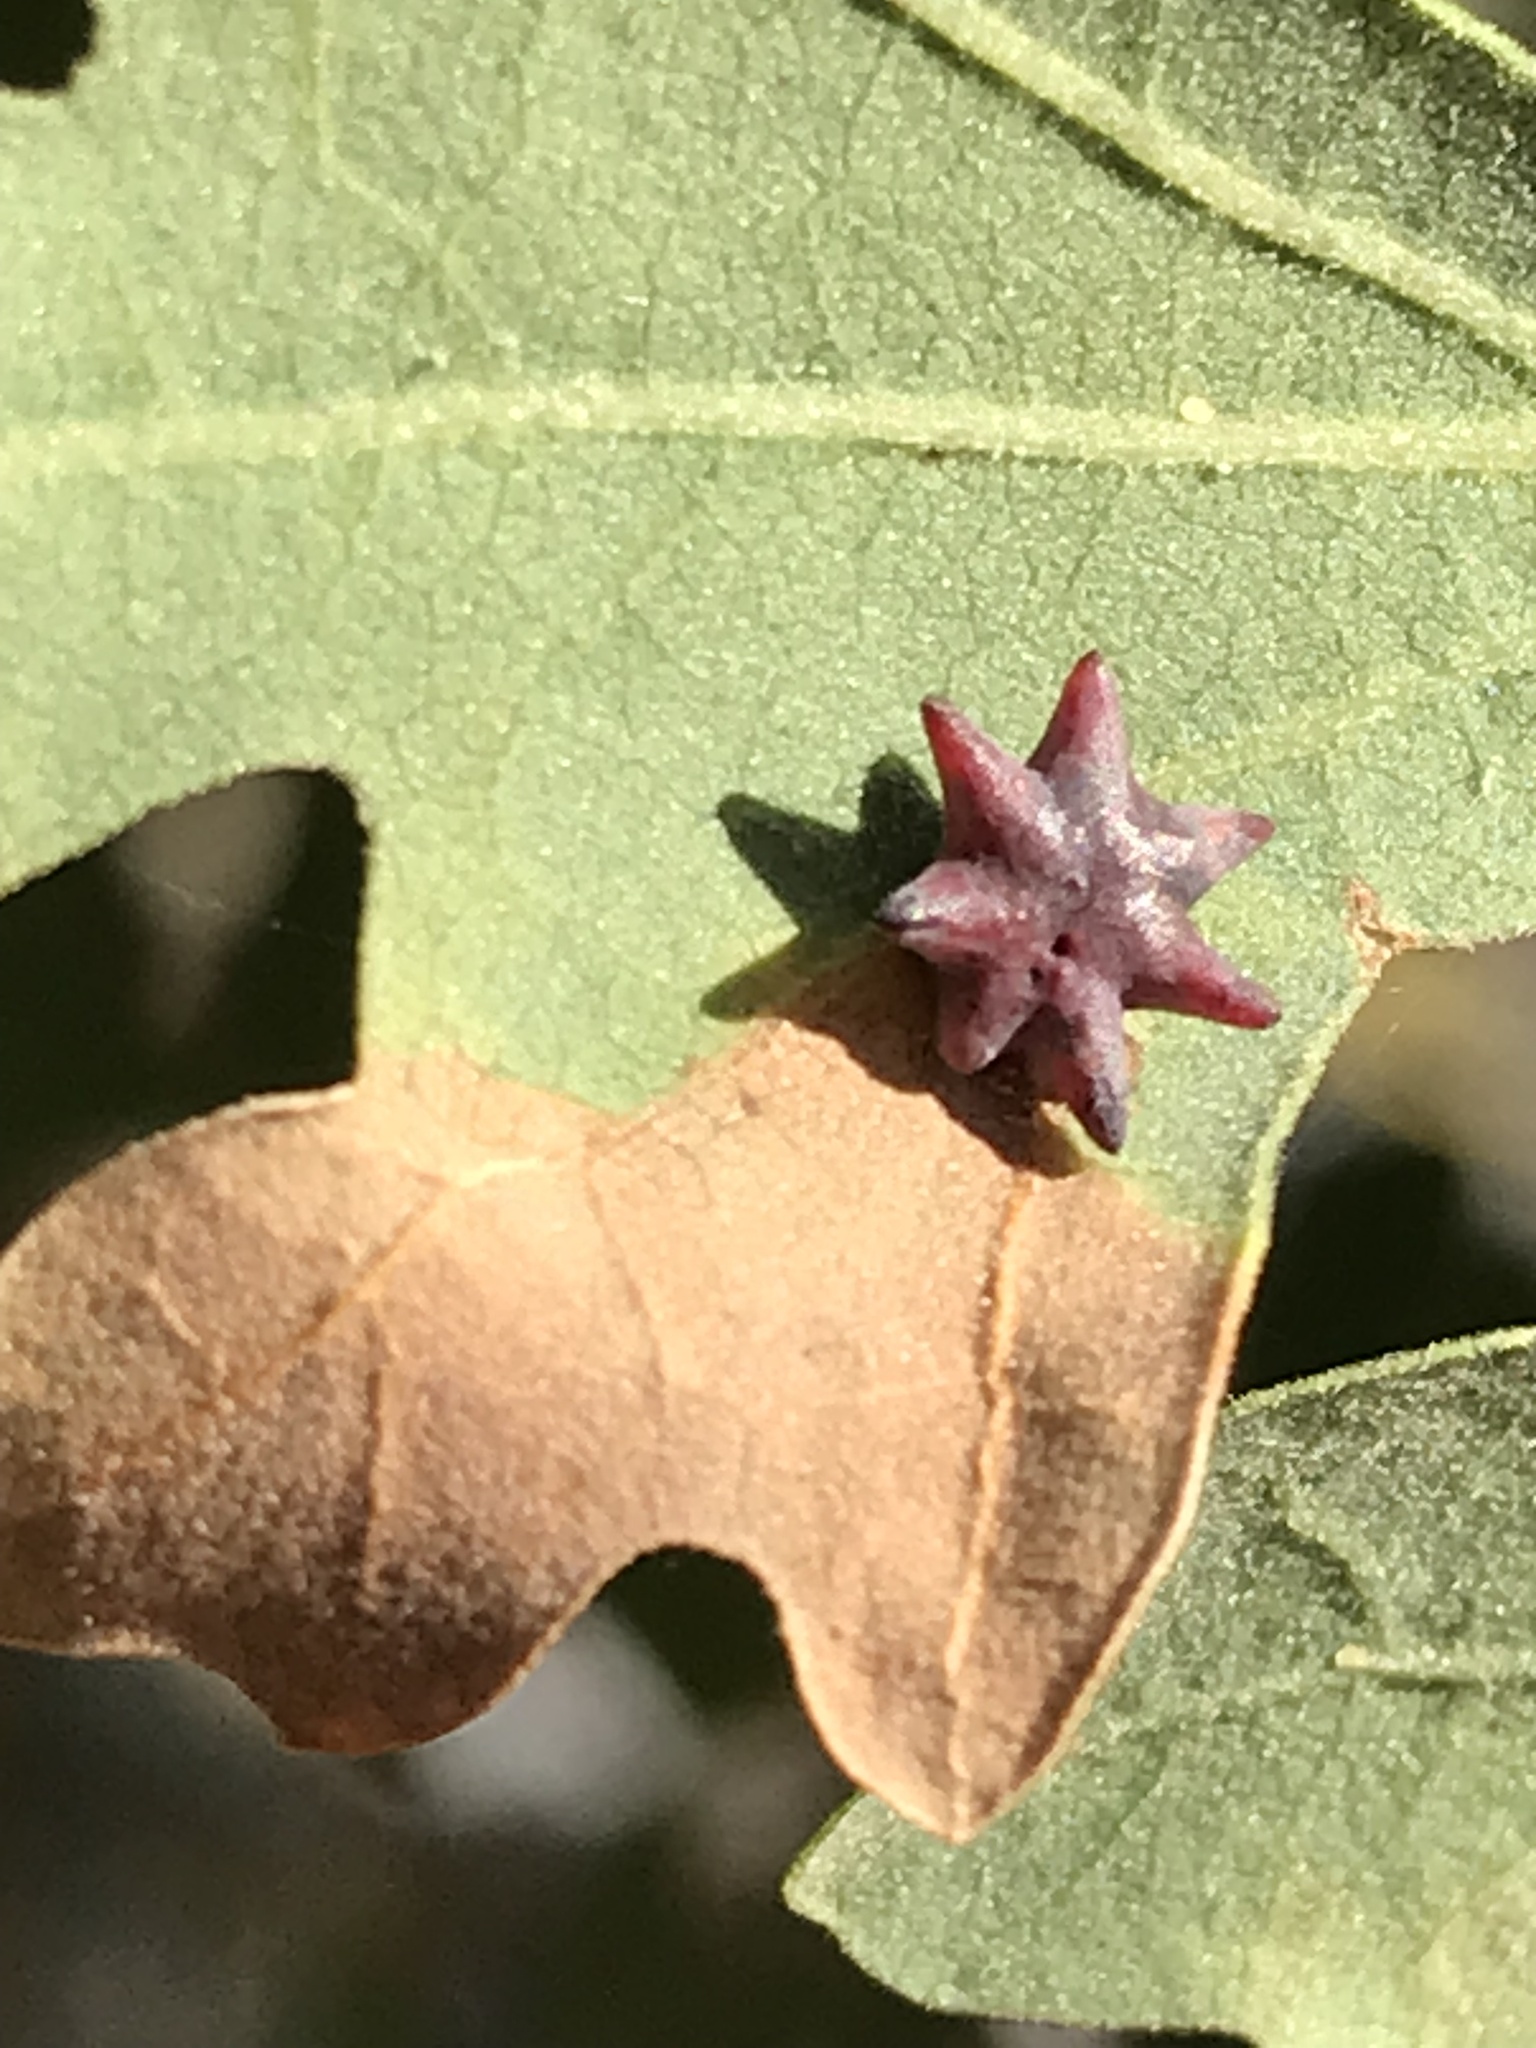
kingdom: Animalia
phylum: Arthropoda
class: Insecta
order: Hymenoptera
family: Cynipidae
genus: Cynips
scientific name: Cynips douglasi
